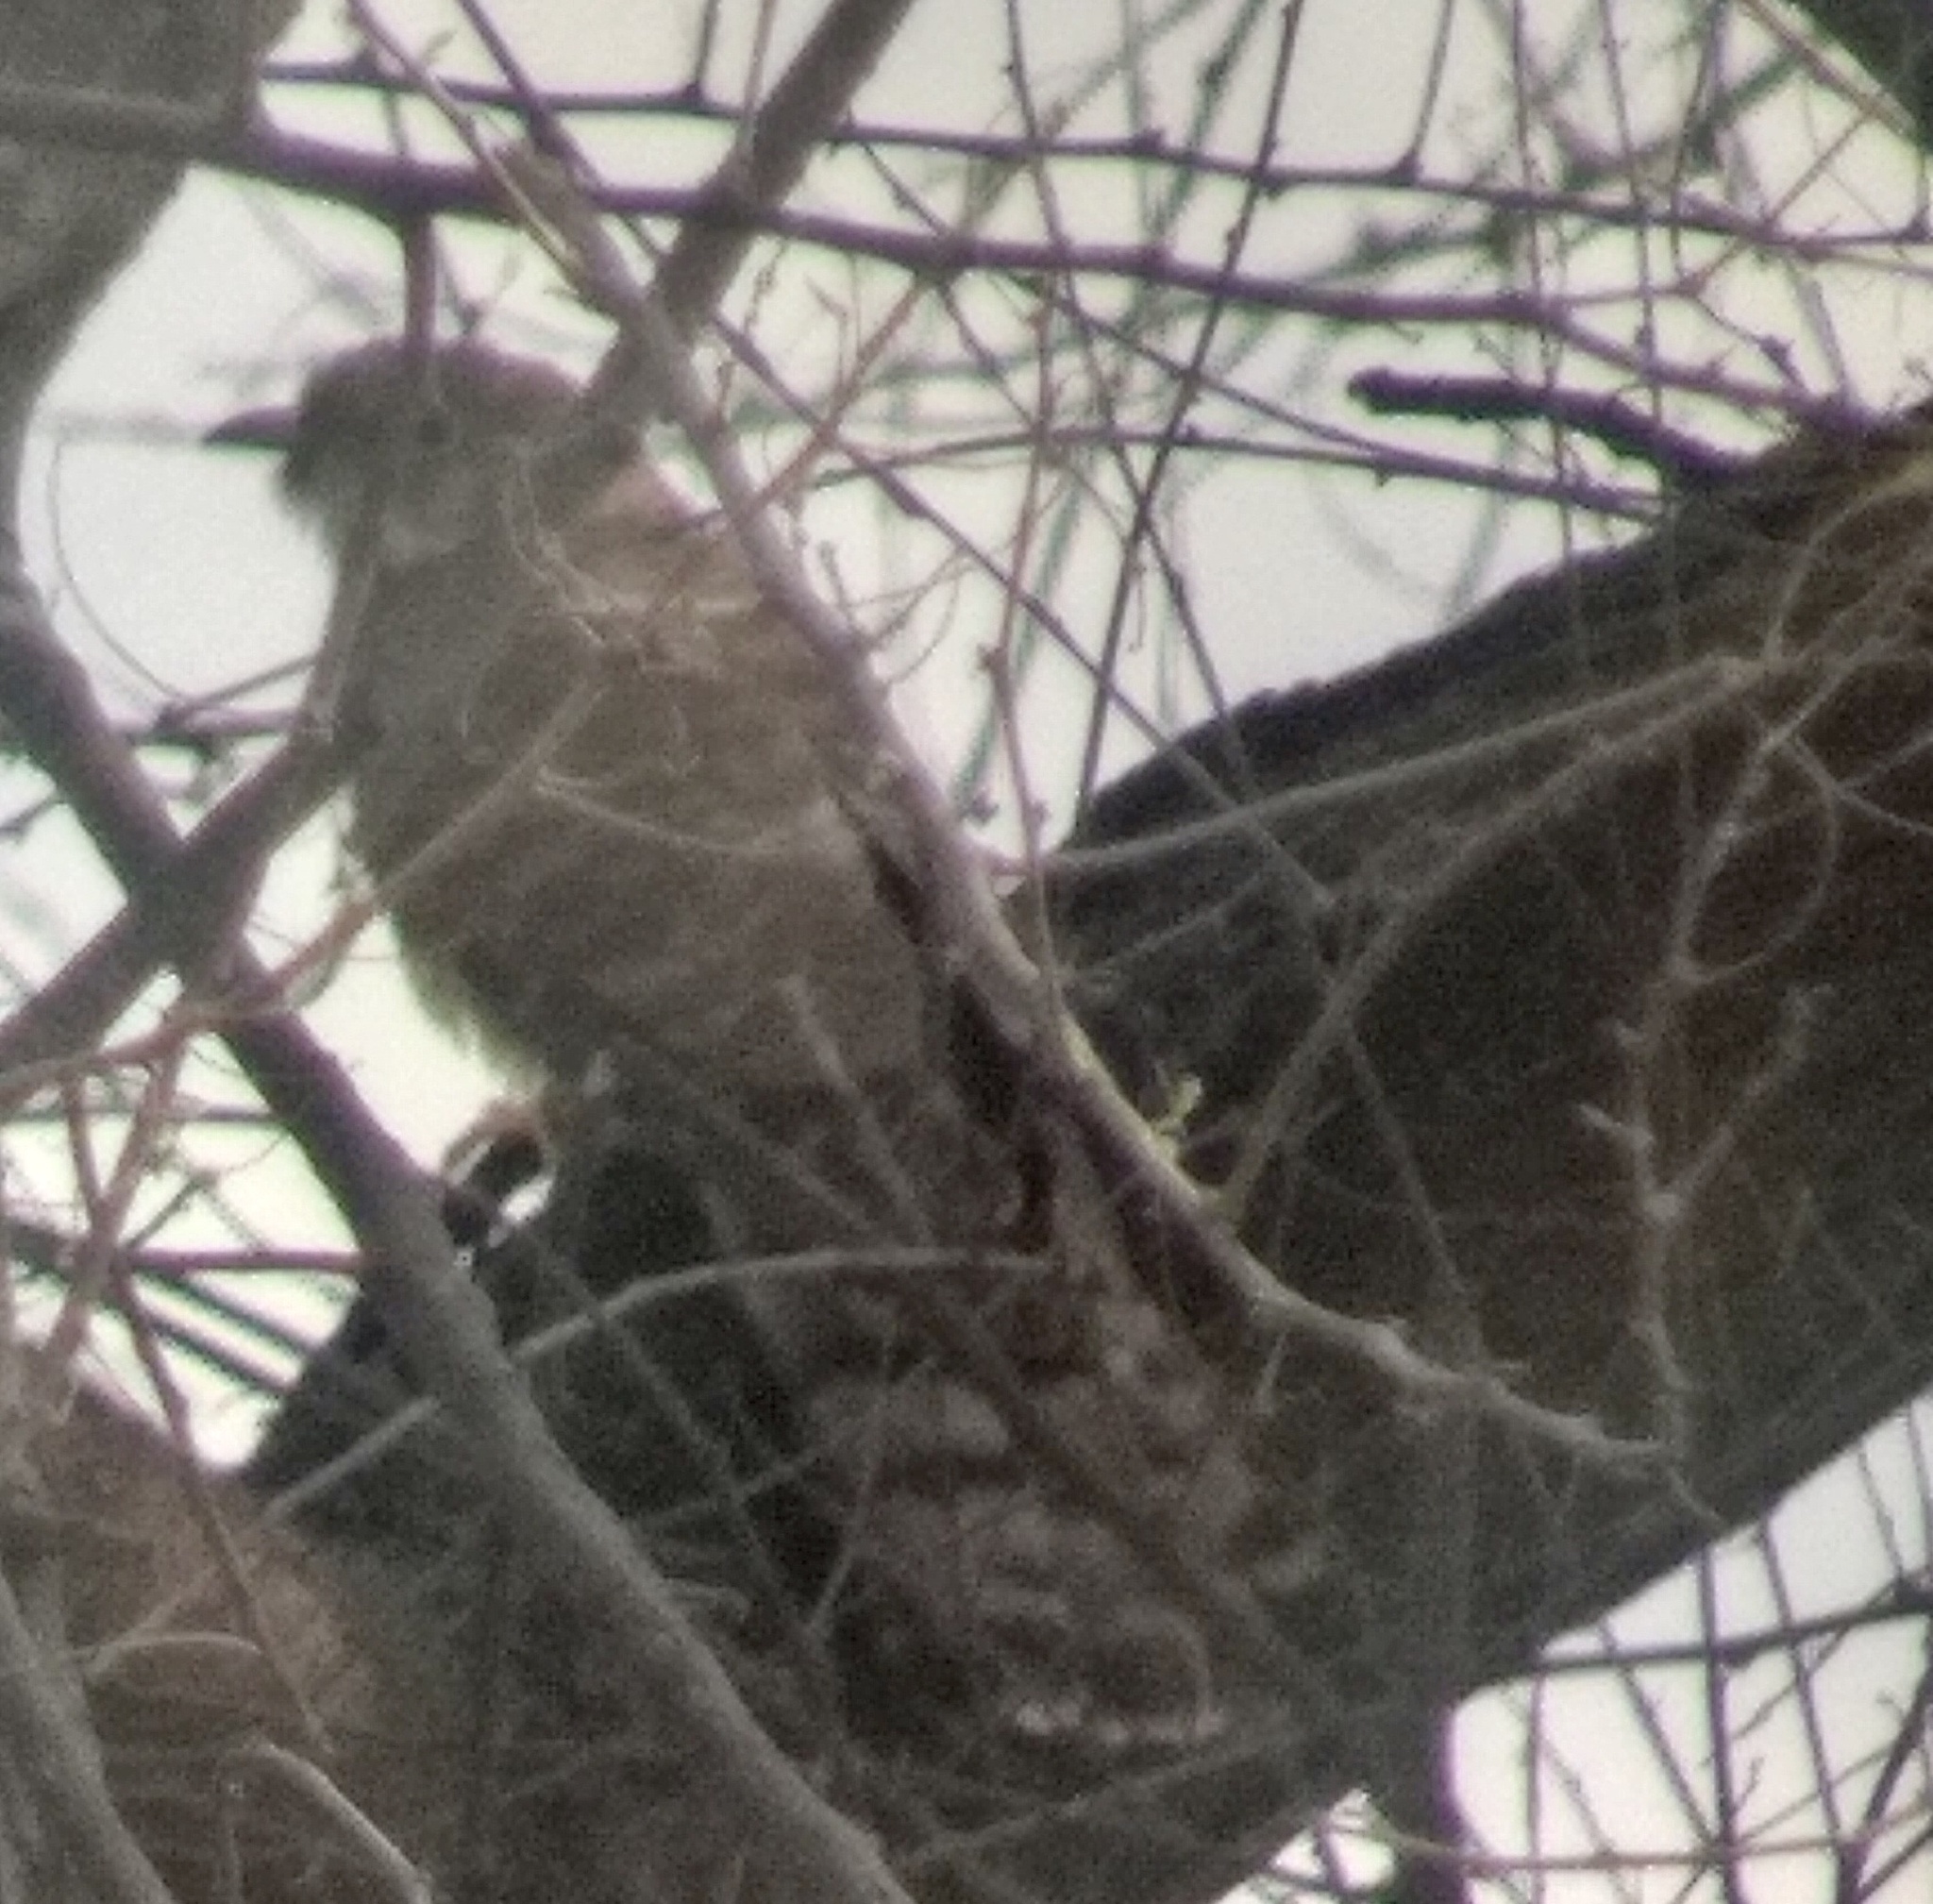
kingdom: Animalia
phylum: Chordata
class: Aves
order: Cuculiformes
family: Cuculidae
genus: Cuculus
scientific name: Cuculus varius
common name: Common hawk cuckoo
